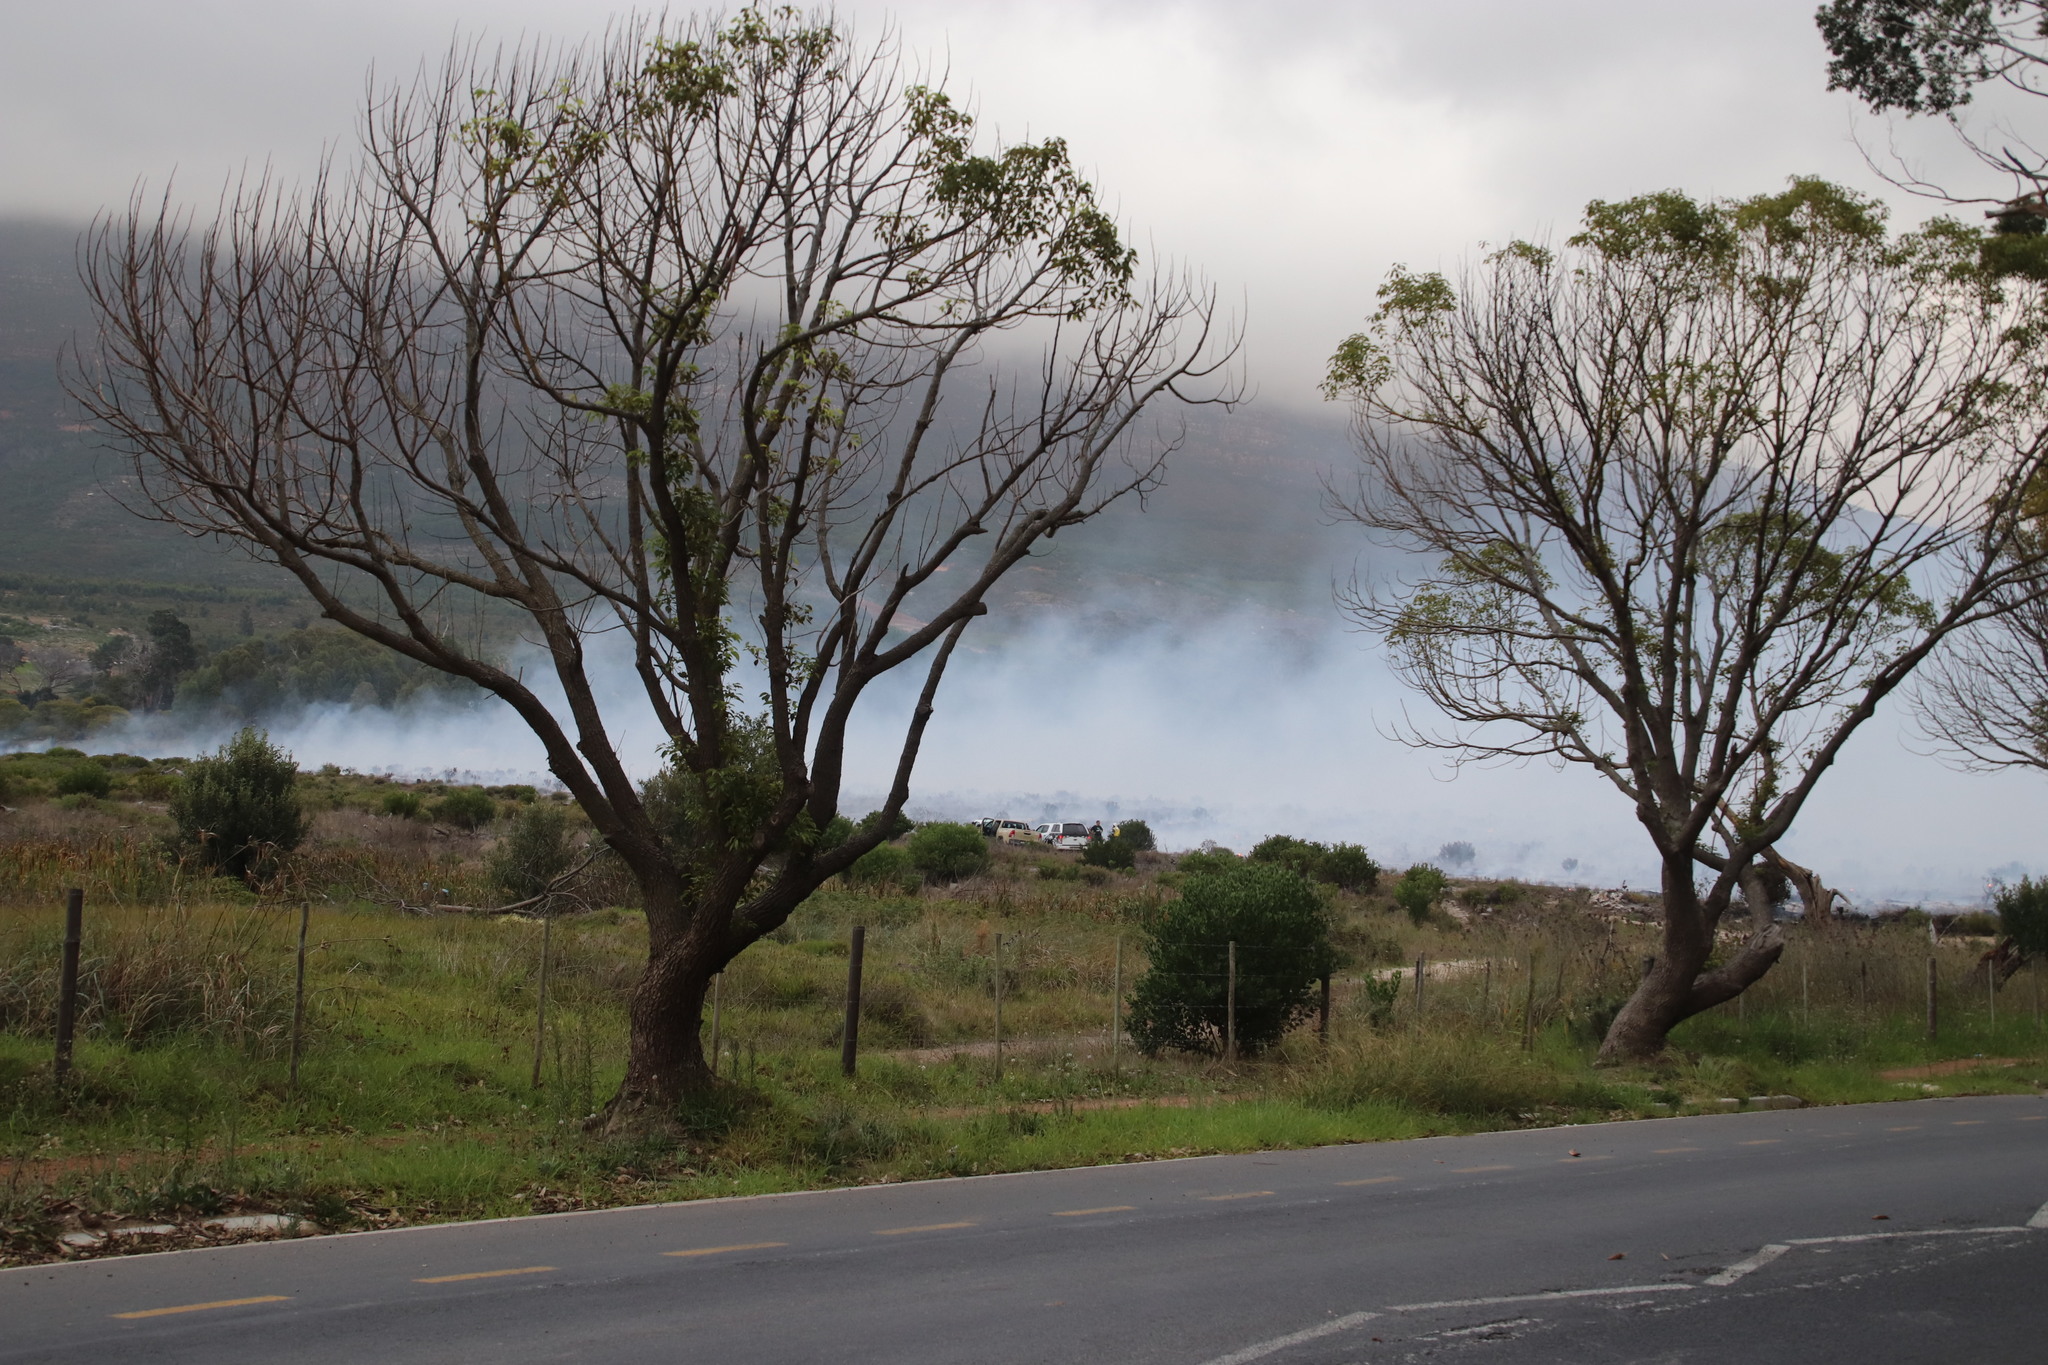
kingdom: Plantae
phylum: Tracheophyta
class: Magnoliopsida
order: Laurales
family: Lauraceae
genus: Cinnamomum
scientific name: Cinnamomum camphora
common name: Camphortree
